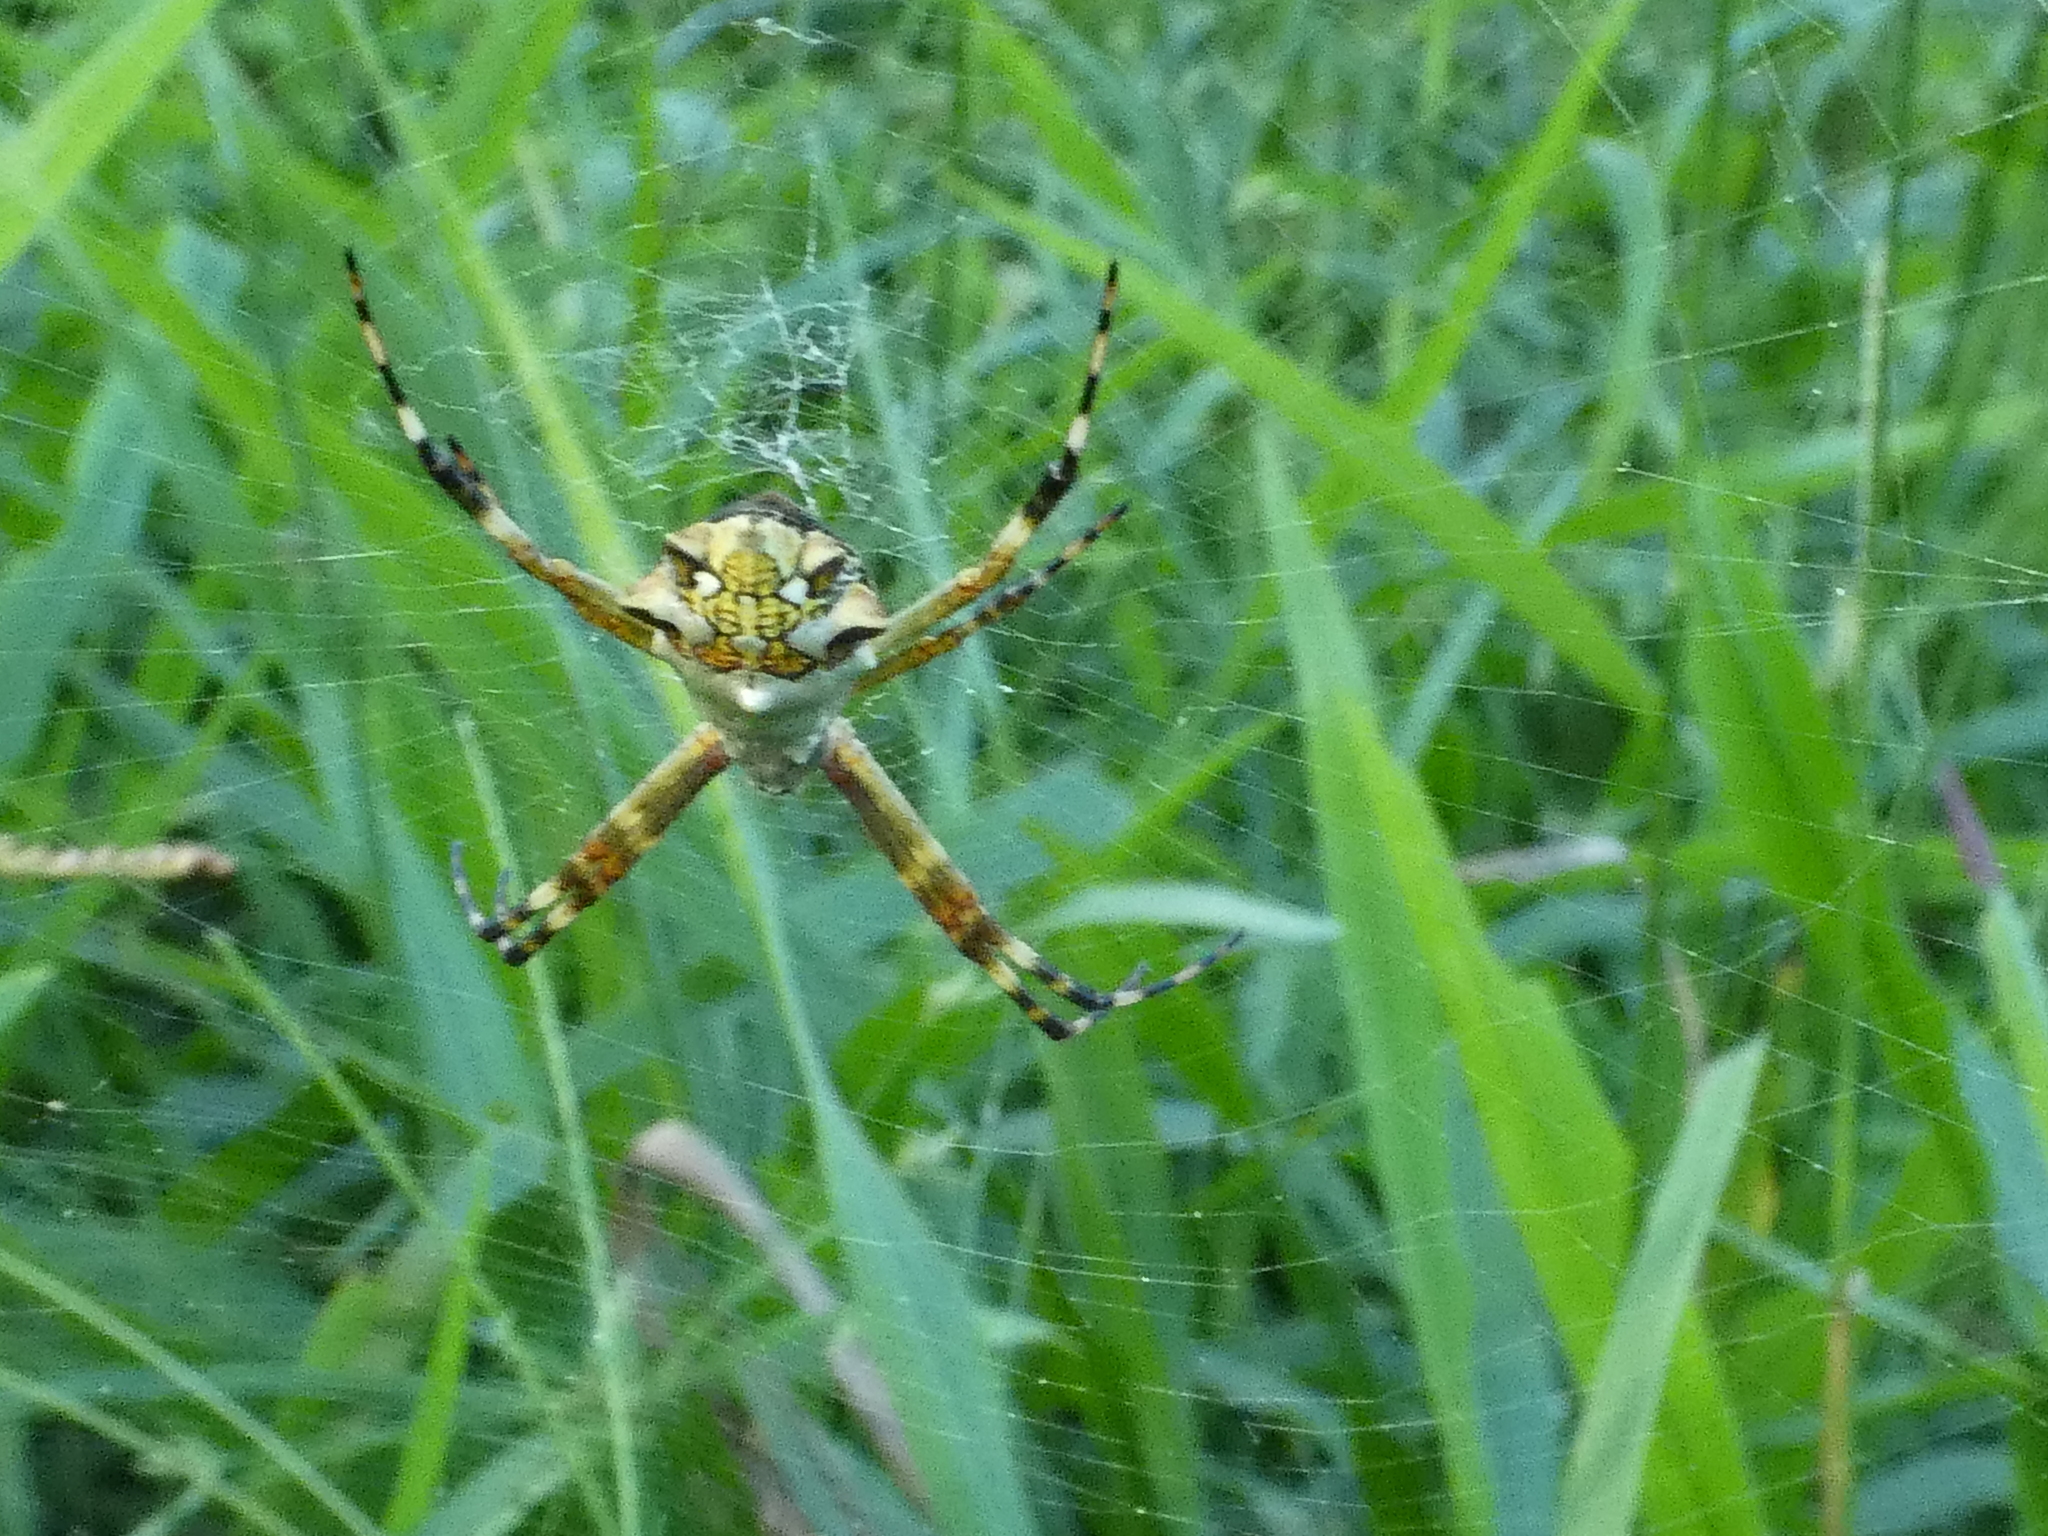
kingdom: Animalia
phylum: Arthropoda
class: Arachnida
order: Araneae
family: Araneidae
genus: Argiope
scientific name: Argiope argentata
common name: Orb weavers
